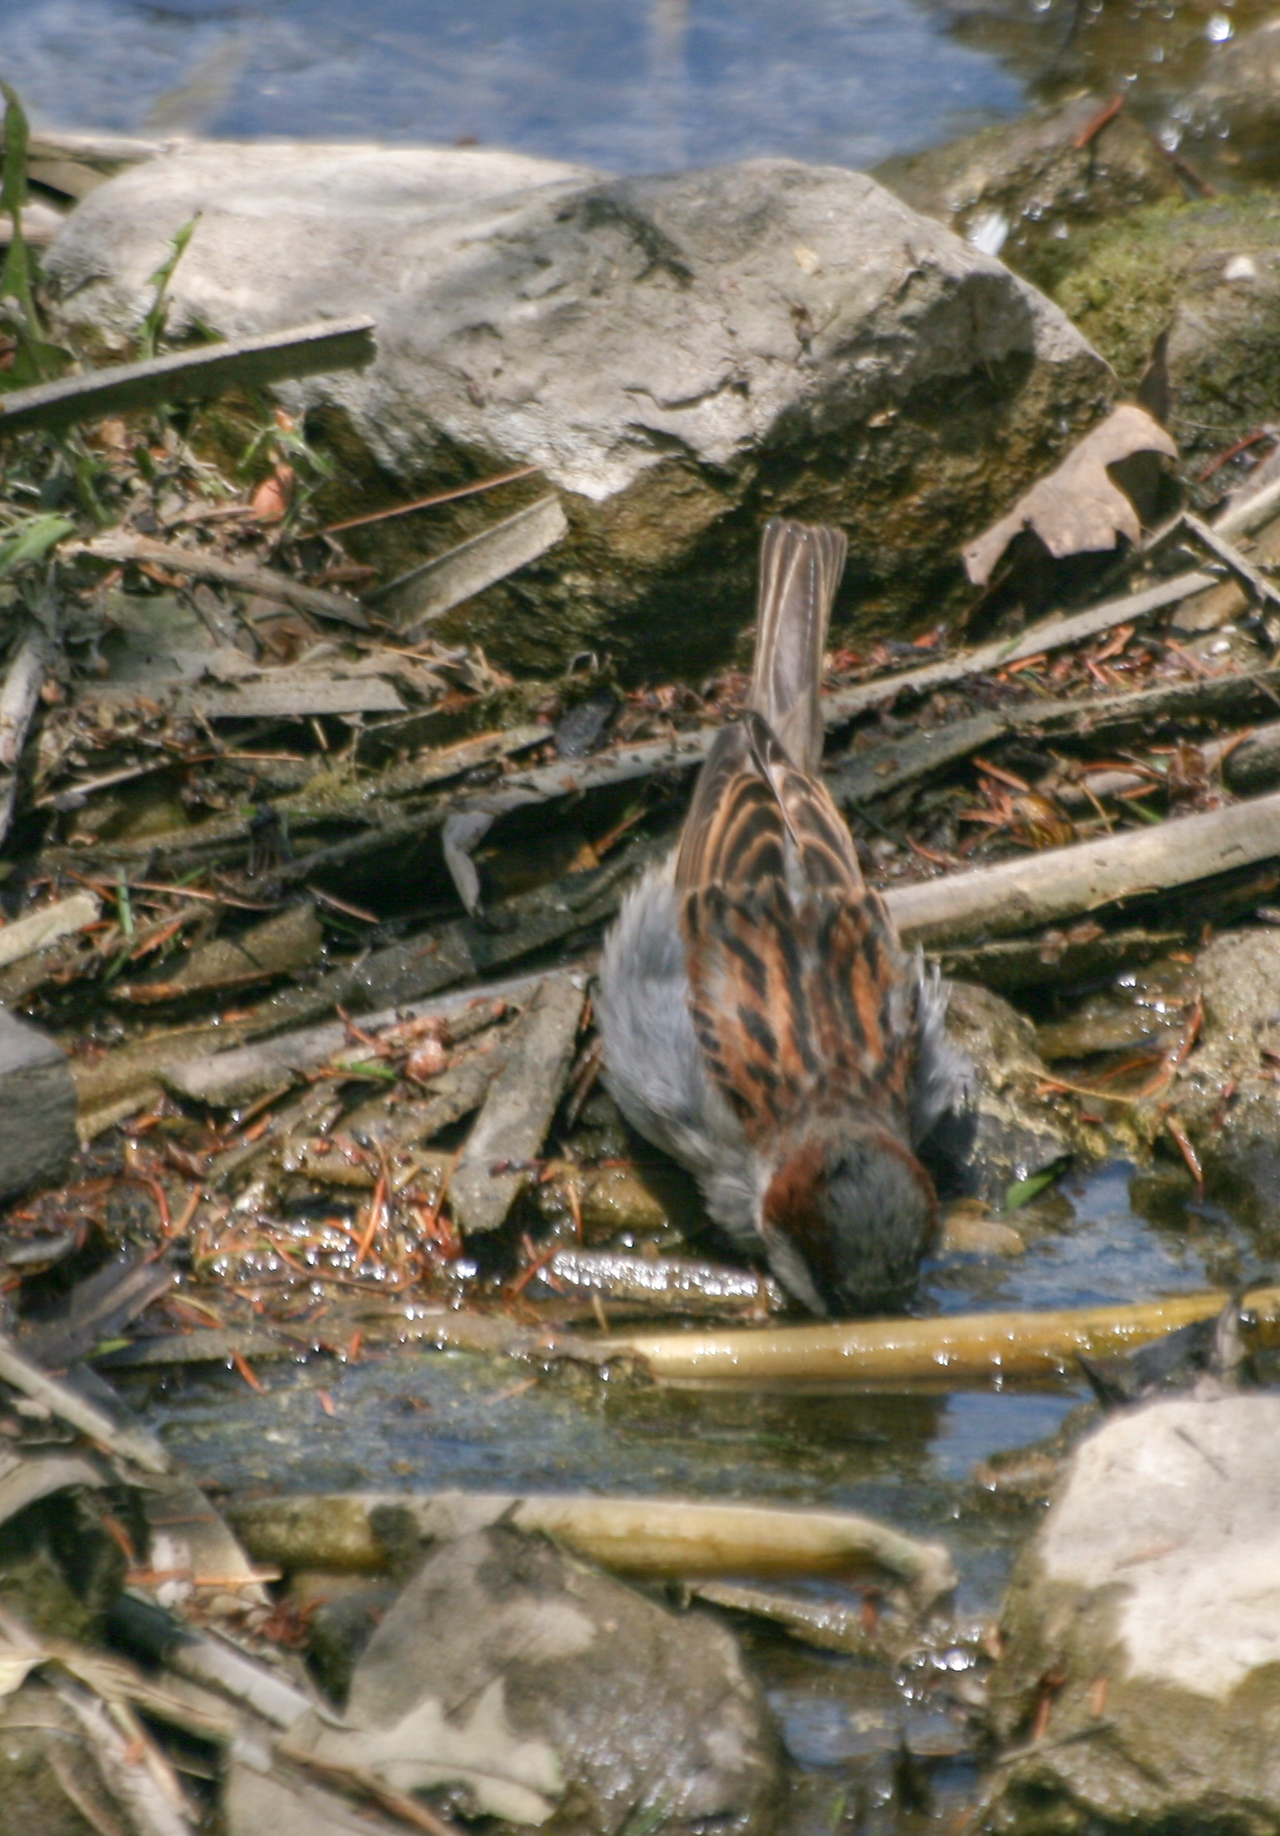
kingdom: Animalia
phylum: Chordata
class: Aves
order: Passeriformes
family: Passeridae
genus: Passer
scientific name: Passer domesticus
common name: House sparrow
